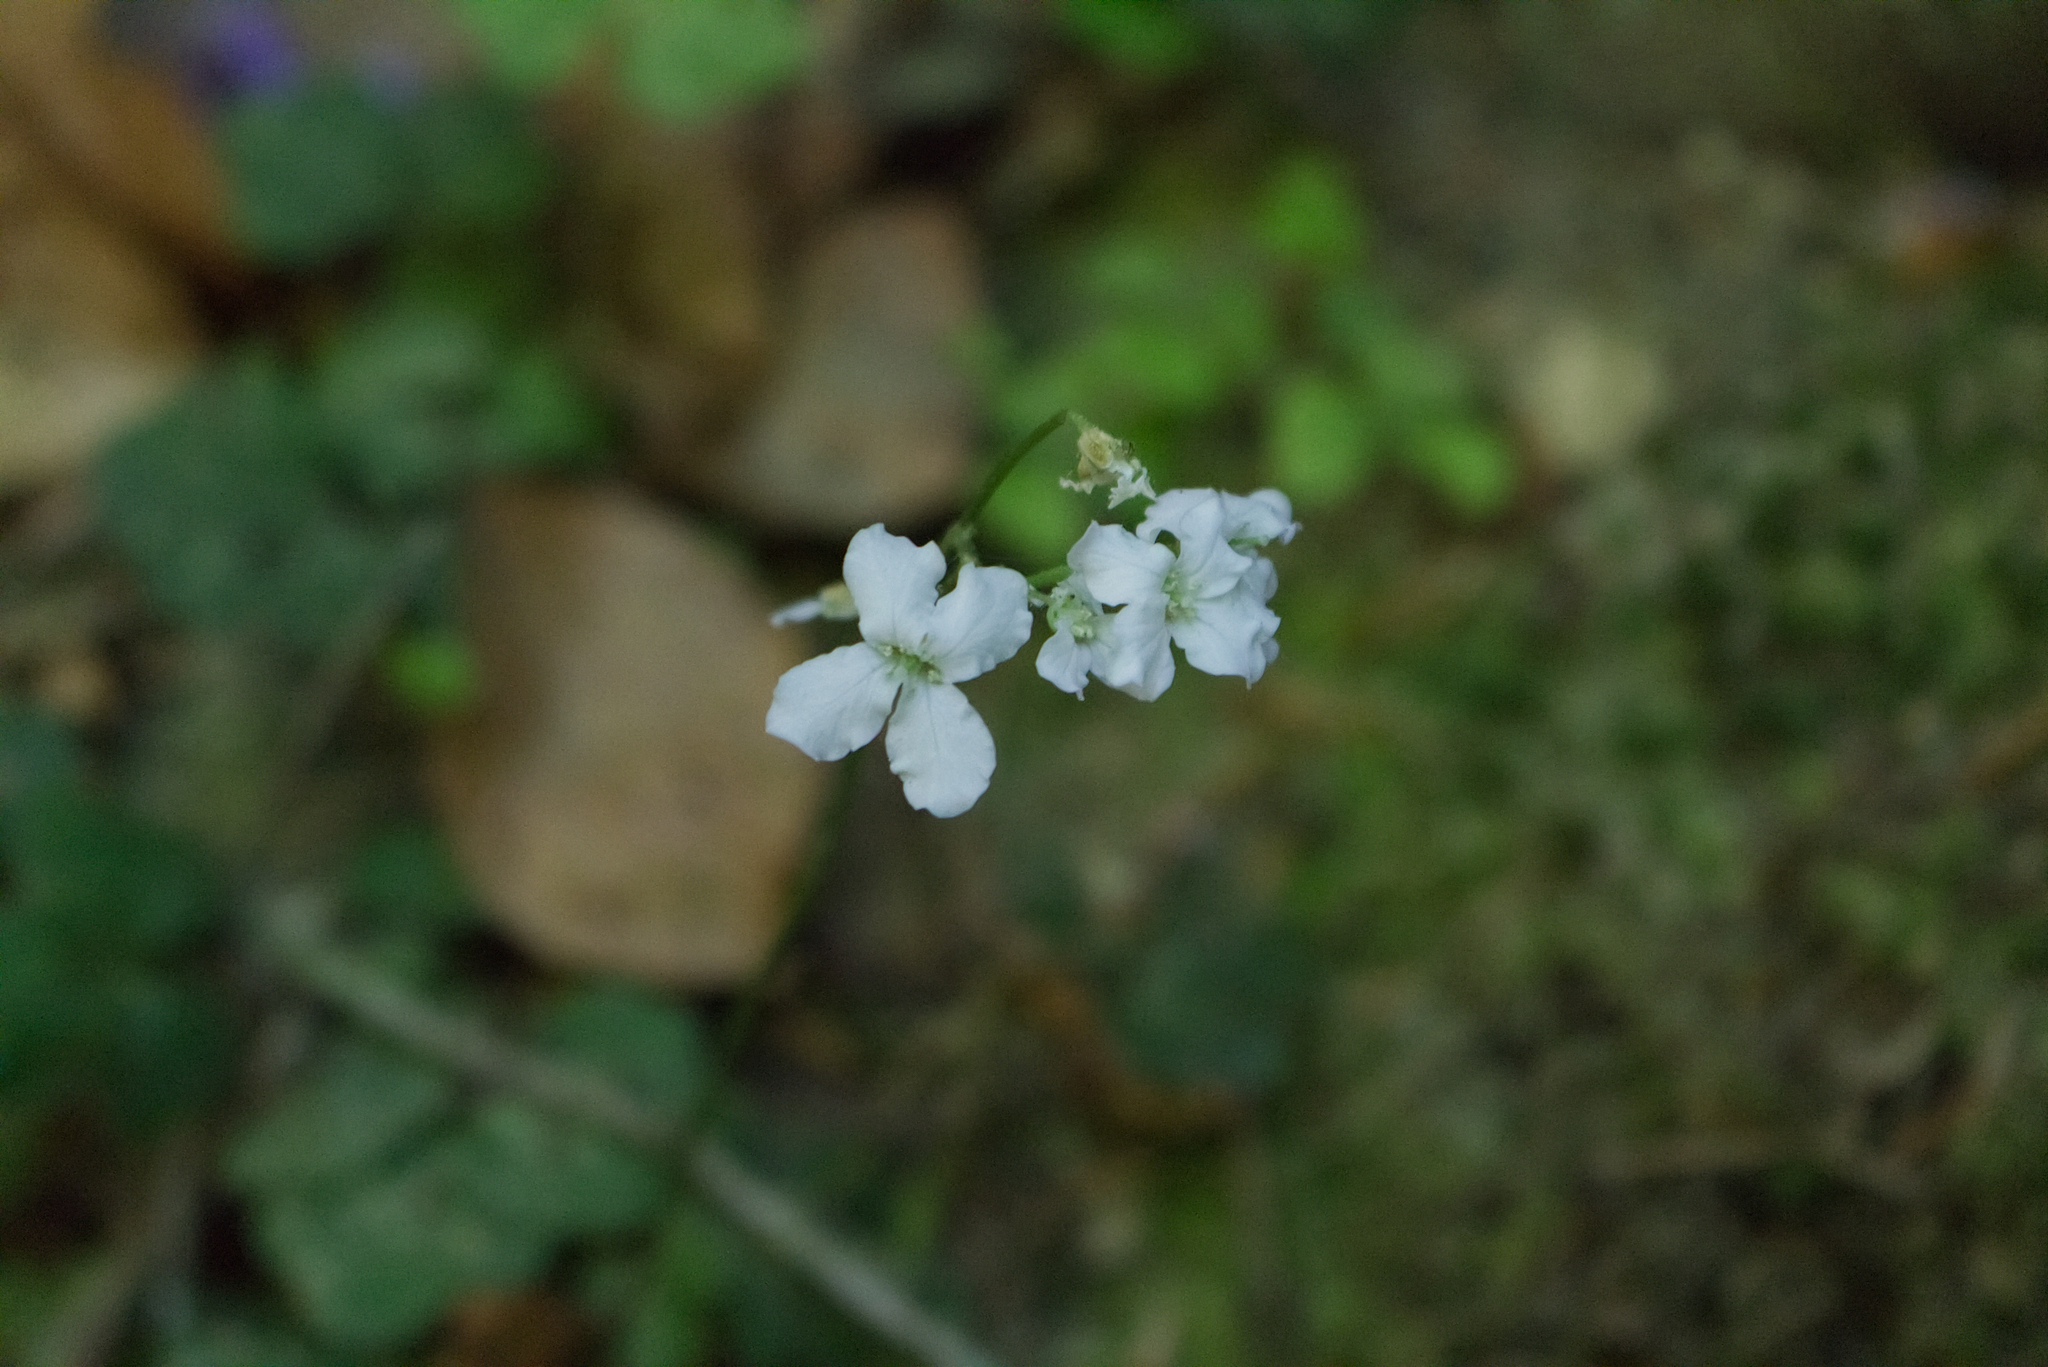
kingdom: Plantae
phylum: Tracheophyta
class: Magnoliopsida
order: Brassicales
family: Brassicaceae
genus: Cardamine
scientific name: Cardamine trifolia
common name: Trefoil cress
